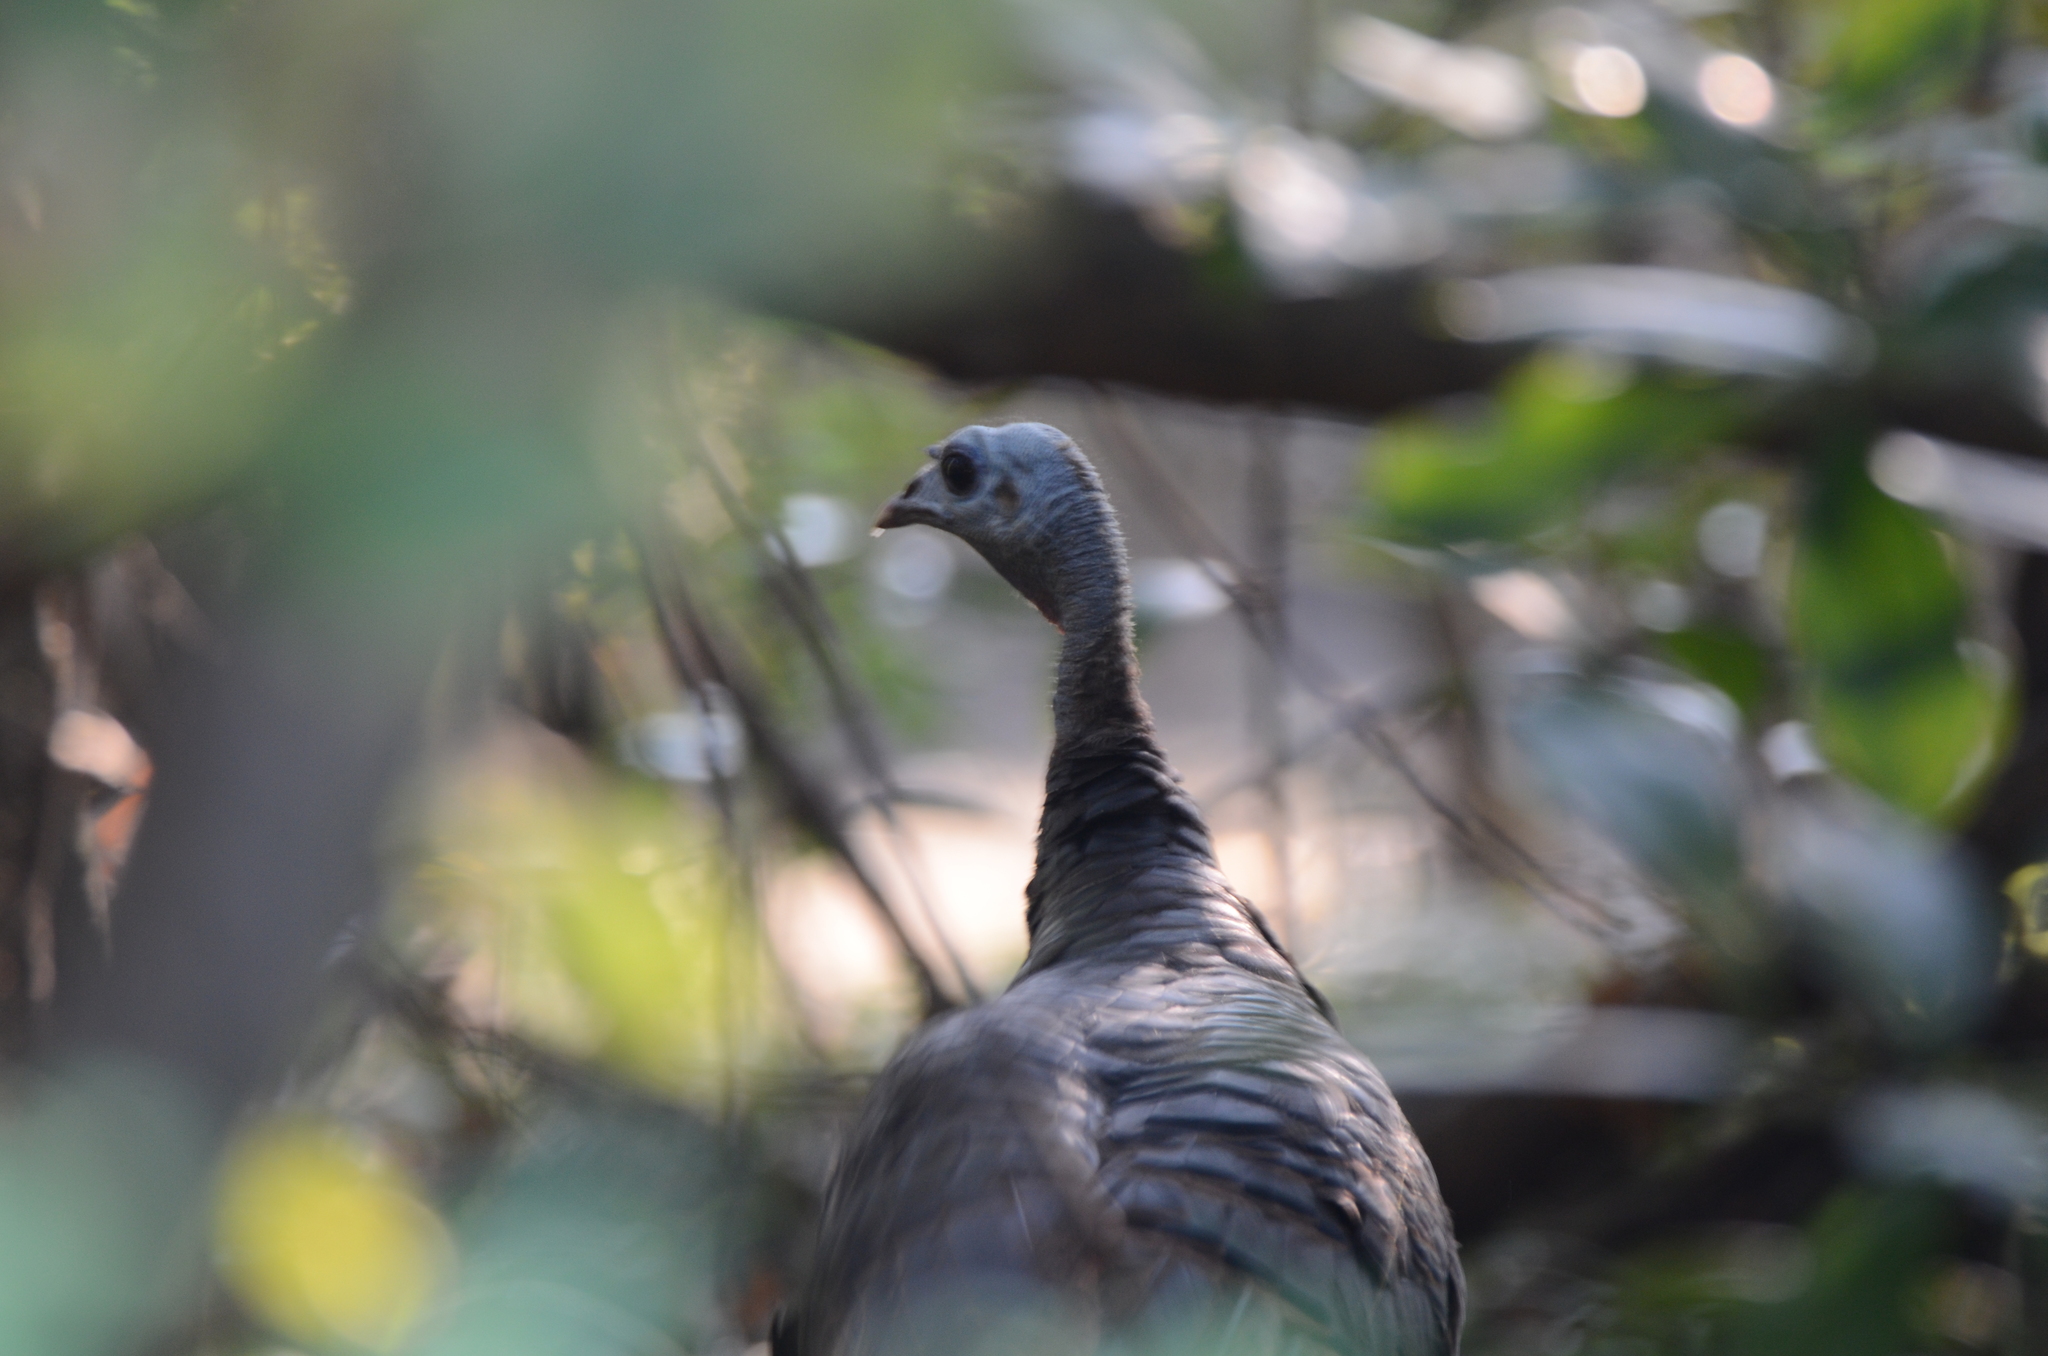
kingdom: Animalia
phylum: Chordata
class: Aves
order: Galliformes
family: Phasianidae
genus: Meleagris
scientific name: Meleagris gallopavo
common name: Wild turkey
